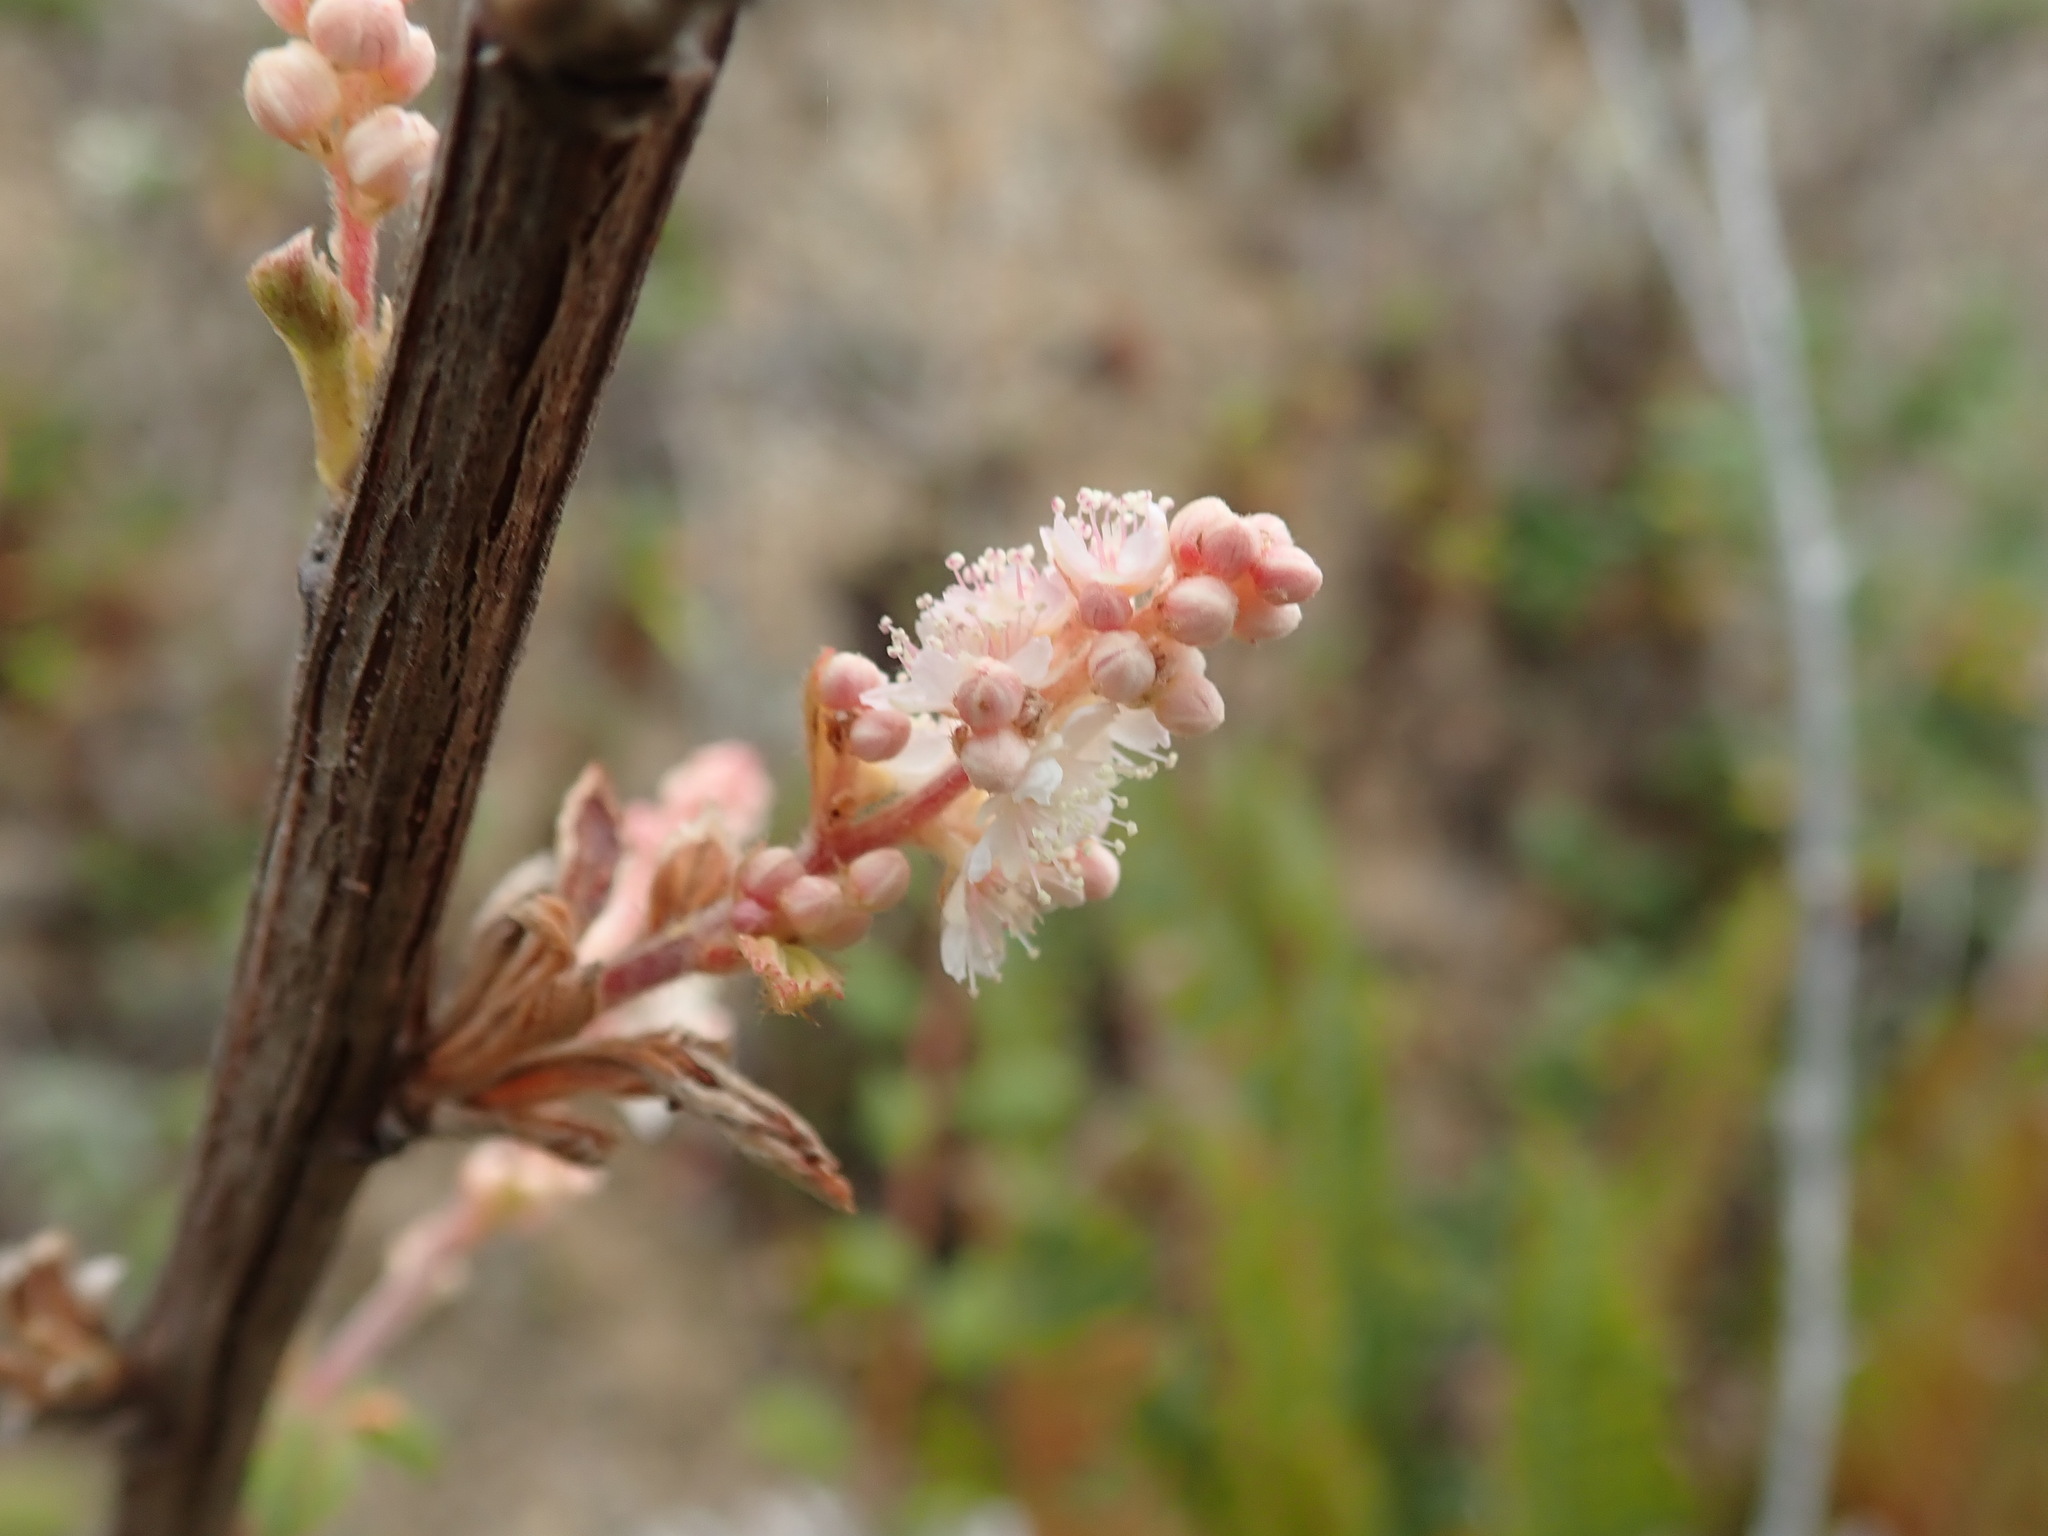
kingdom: Plantae
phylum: Tracheophyta
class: Magnoliopsida
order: Rosales
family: Rosaceae
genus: Holodiscus
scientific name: Holodiscus discolor
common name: Oceanspray
